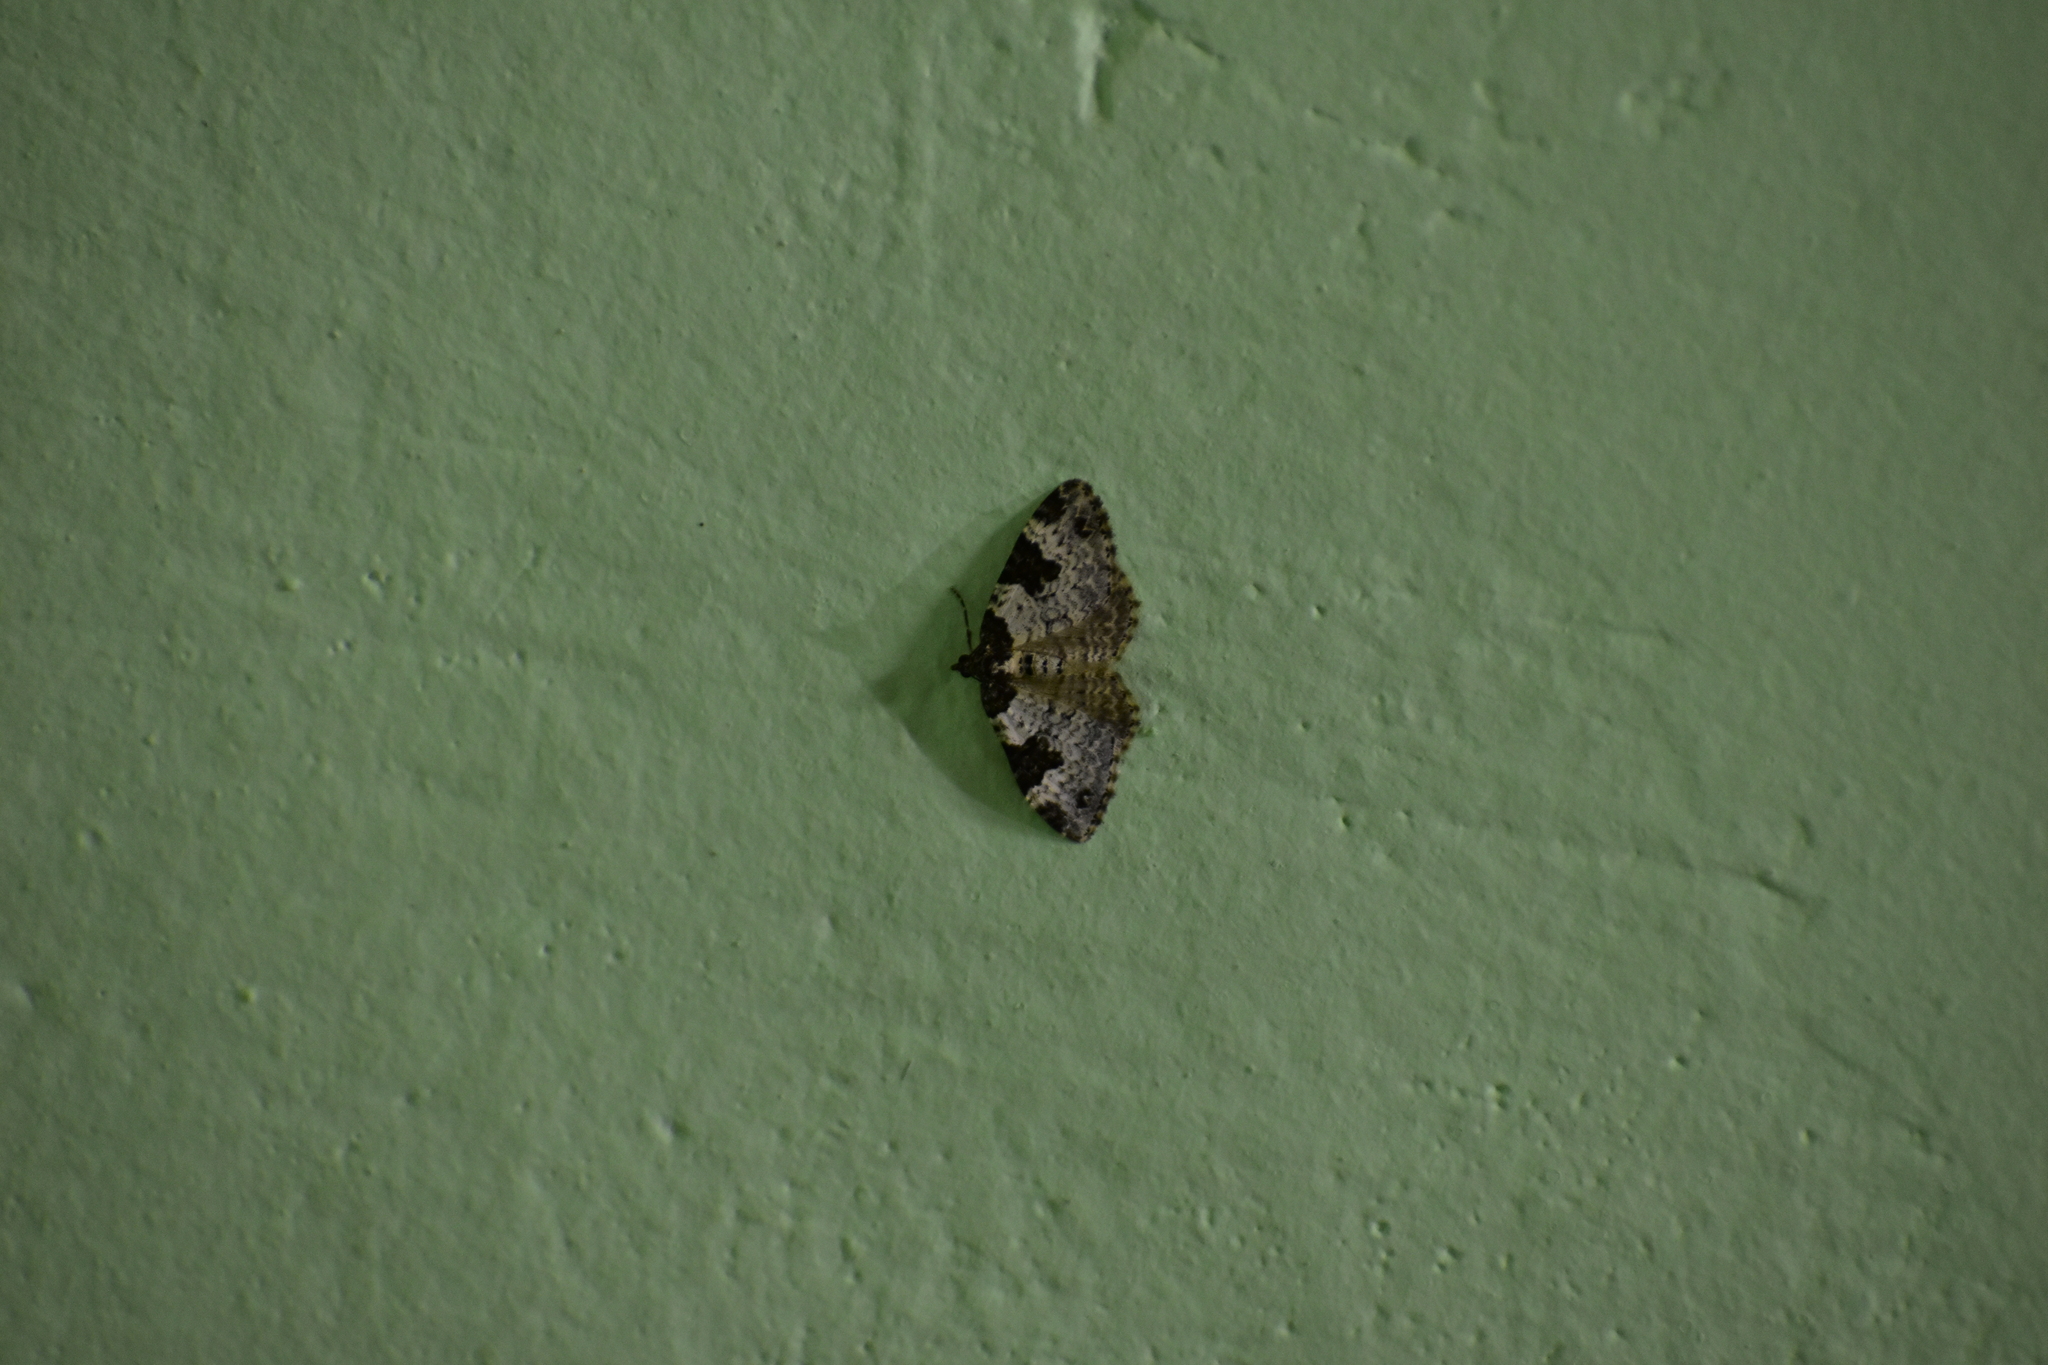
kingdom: Animalia
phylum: Arthropoda
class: Insecta
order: Lepidoptera
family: Geometridae
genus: Xanthorhoe
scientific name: Xanthorhoe fluctuata
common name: Garden carpet
